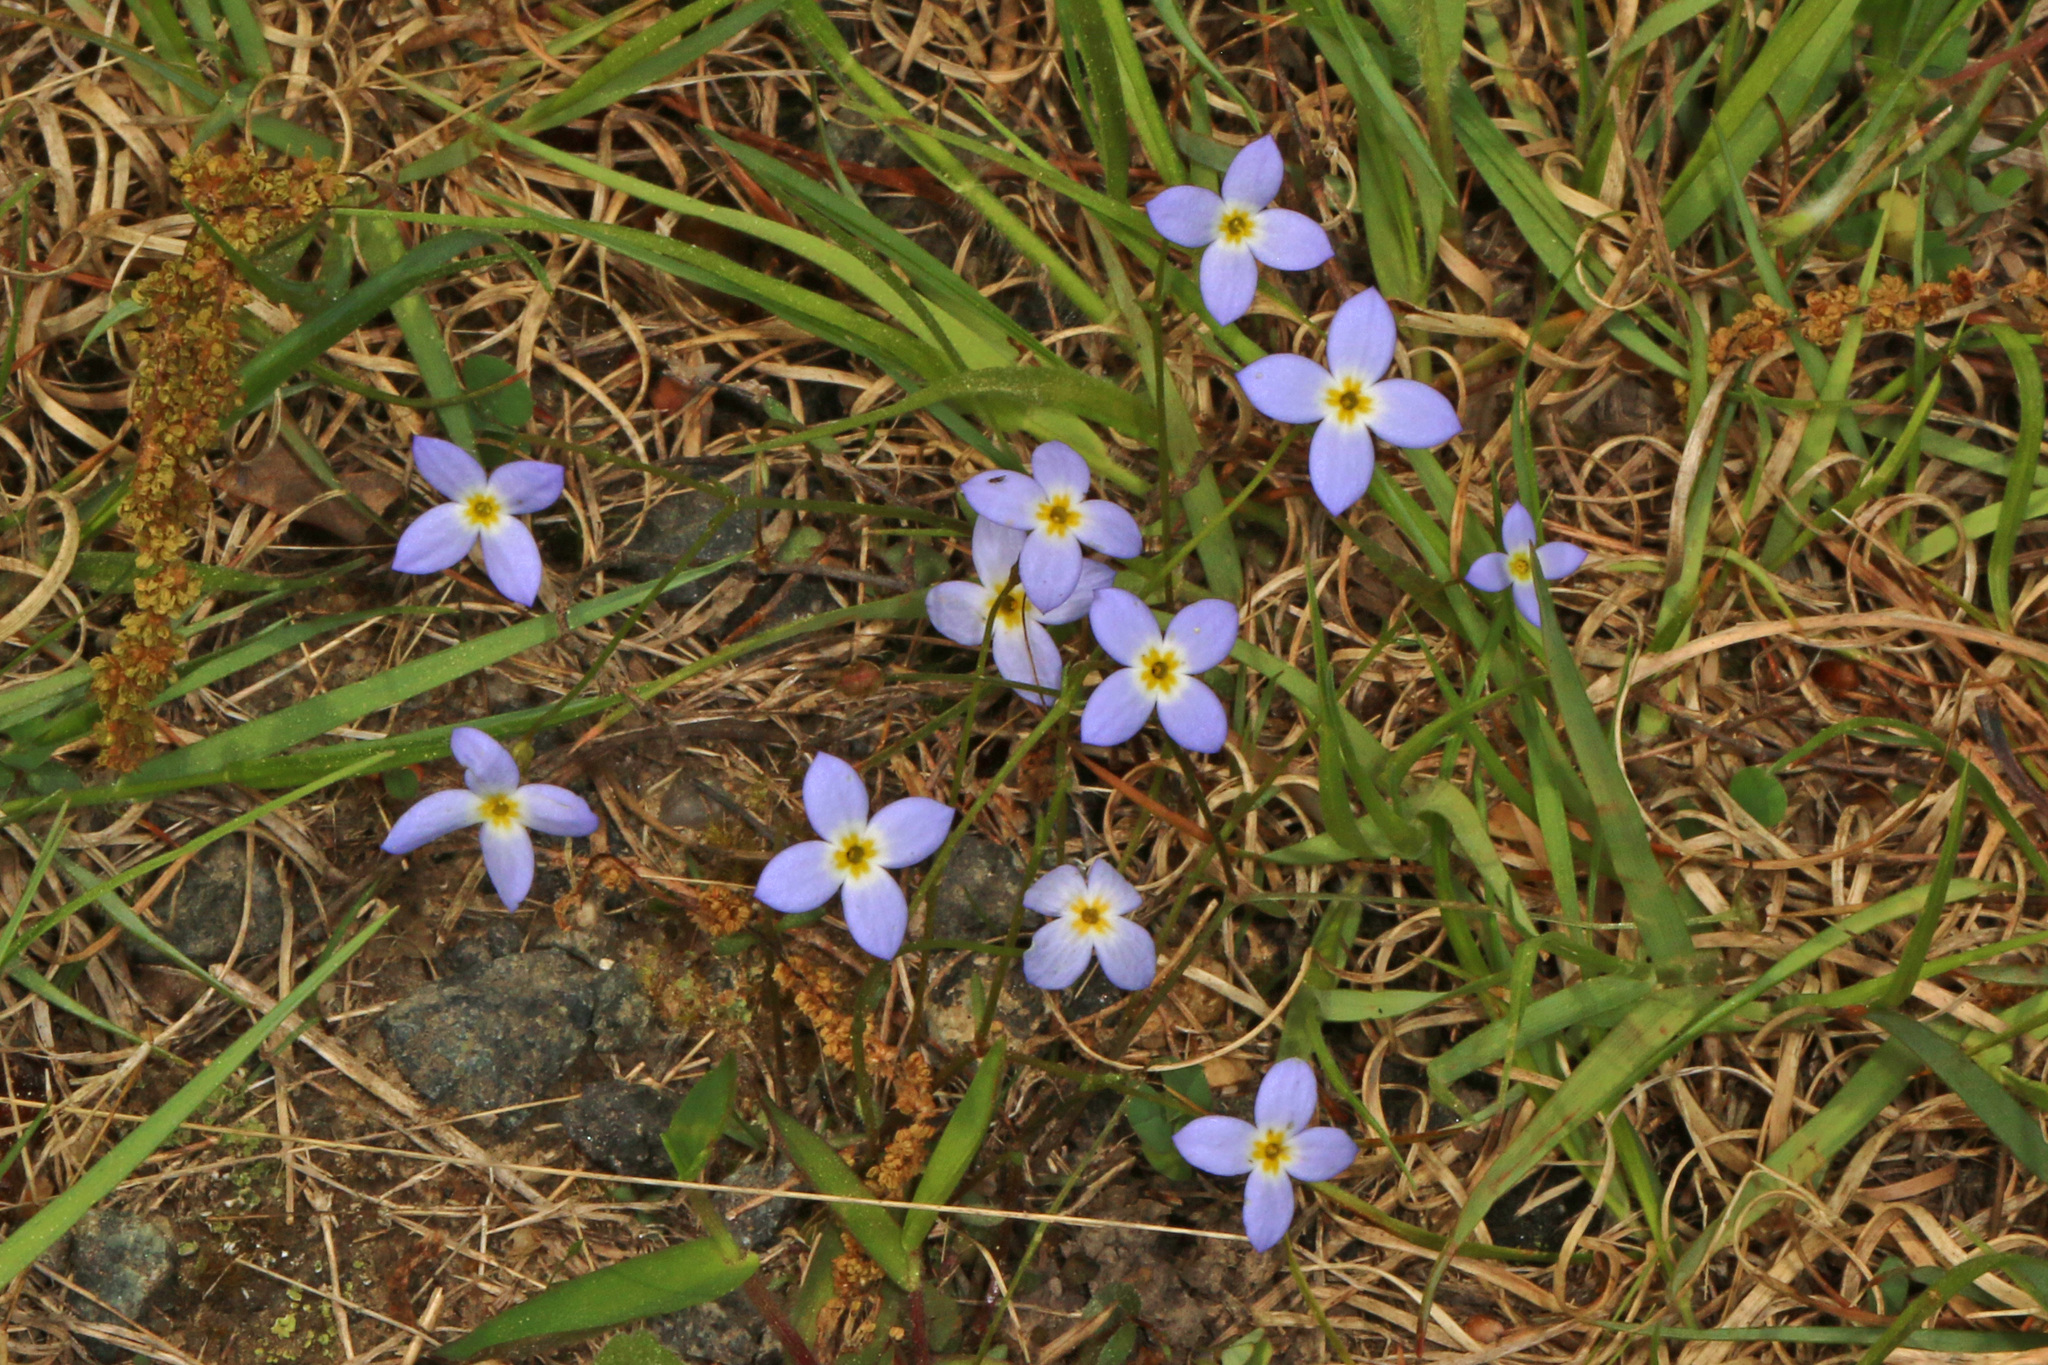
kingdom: Plantae
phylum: Tracheophyta
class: Magnoliopsida
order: Gentianales
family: Rubiaceae
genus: Houstonia
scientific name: Houstonia caerulea
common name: Bluets
